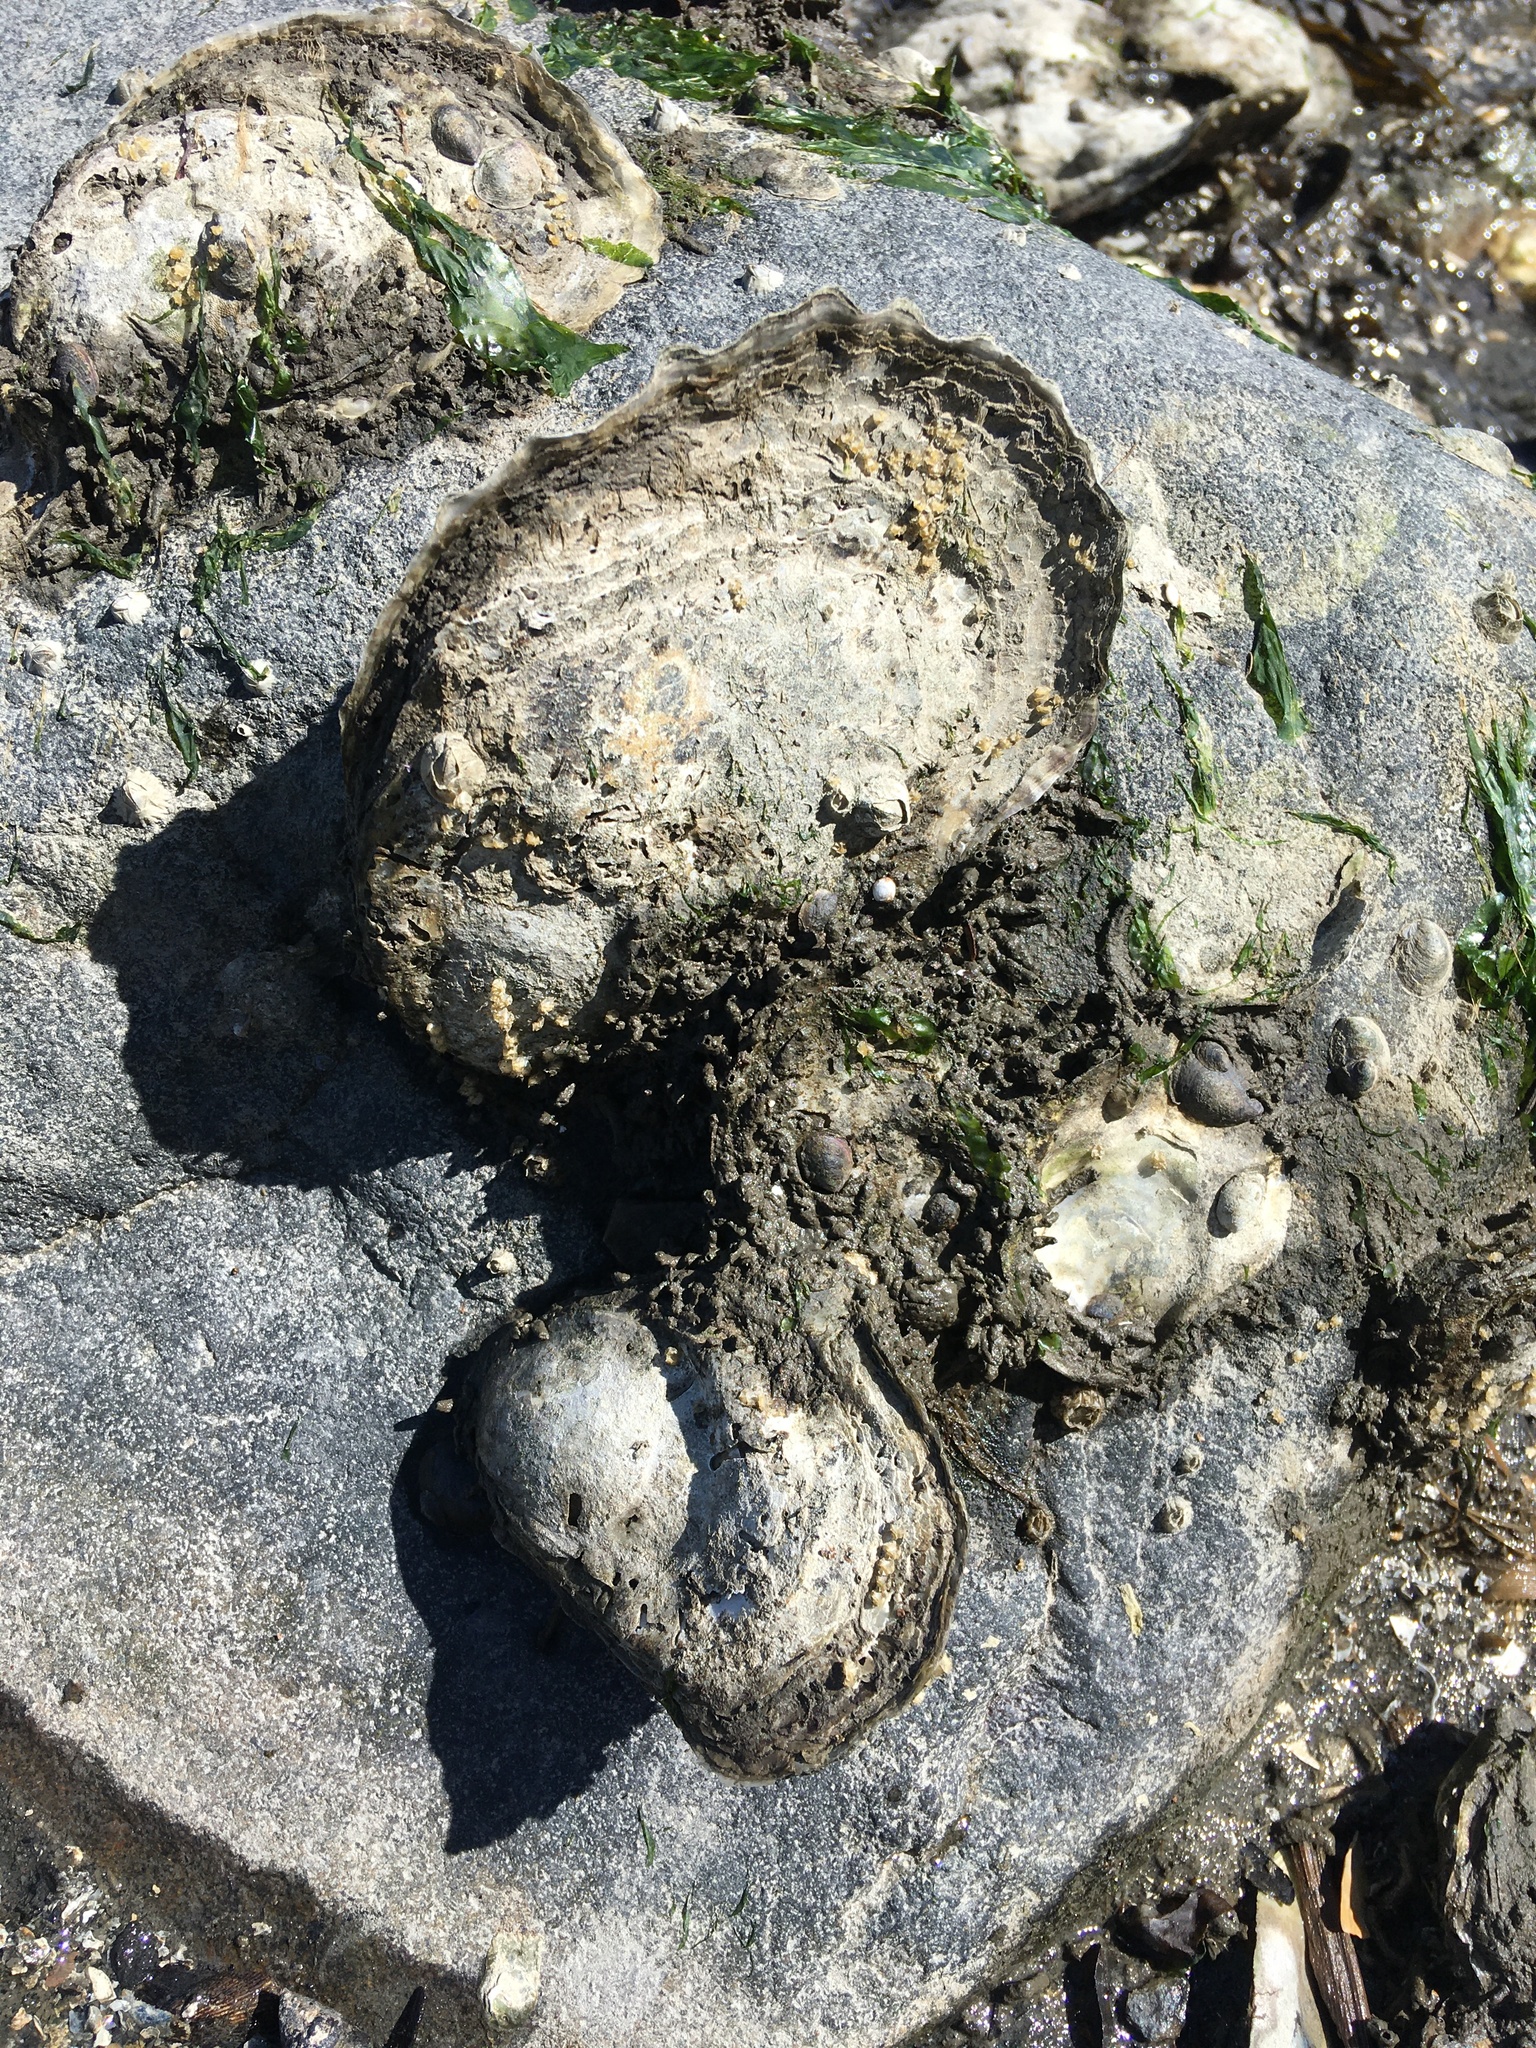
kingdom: Animalia
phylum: Mollusca
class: Bivalvia
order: Ostreida
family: Ostreidae
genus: Crassostrea
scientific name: Crassostrea virginica
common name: American oyster
